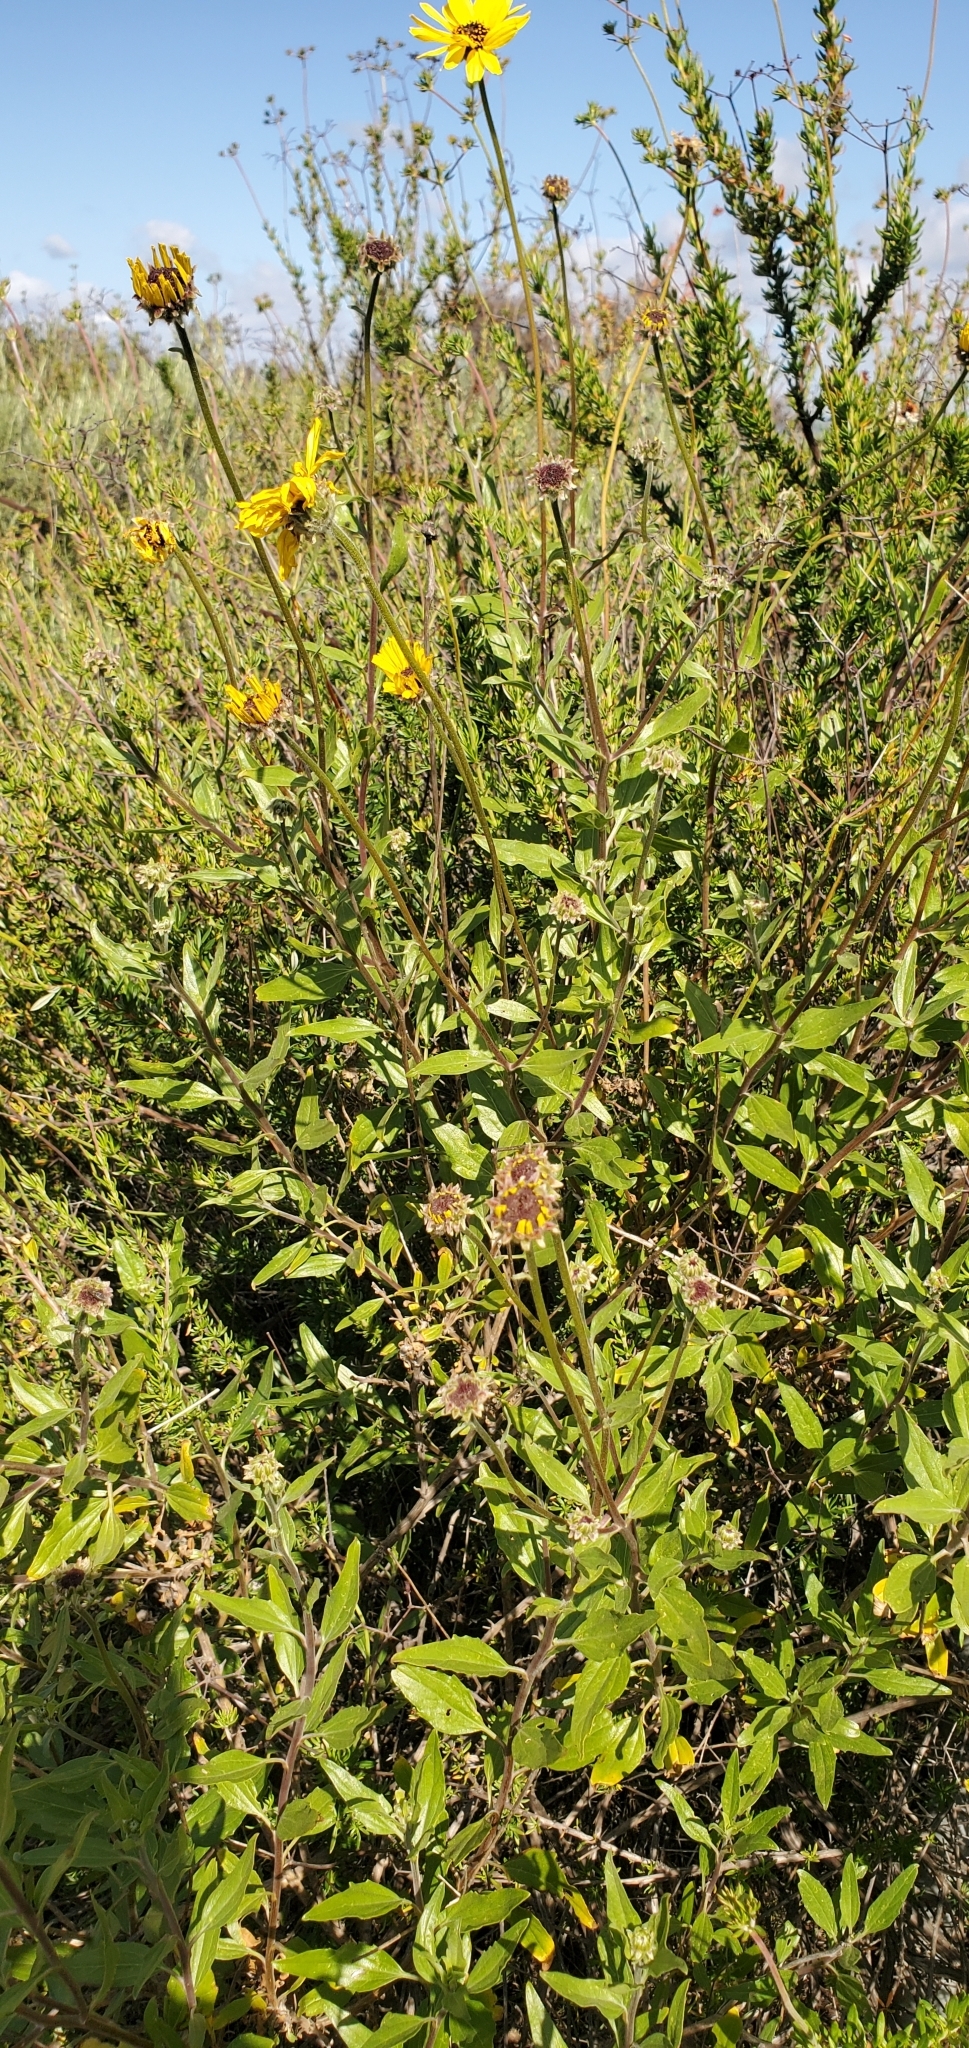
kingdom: Plantae
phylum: Tracheophyta
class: Magnoliopsida
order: Asterales
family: Asteraceae
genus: Encelia
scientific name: Encelia californica
